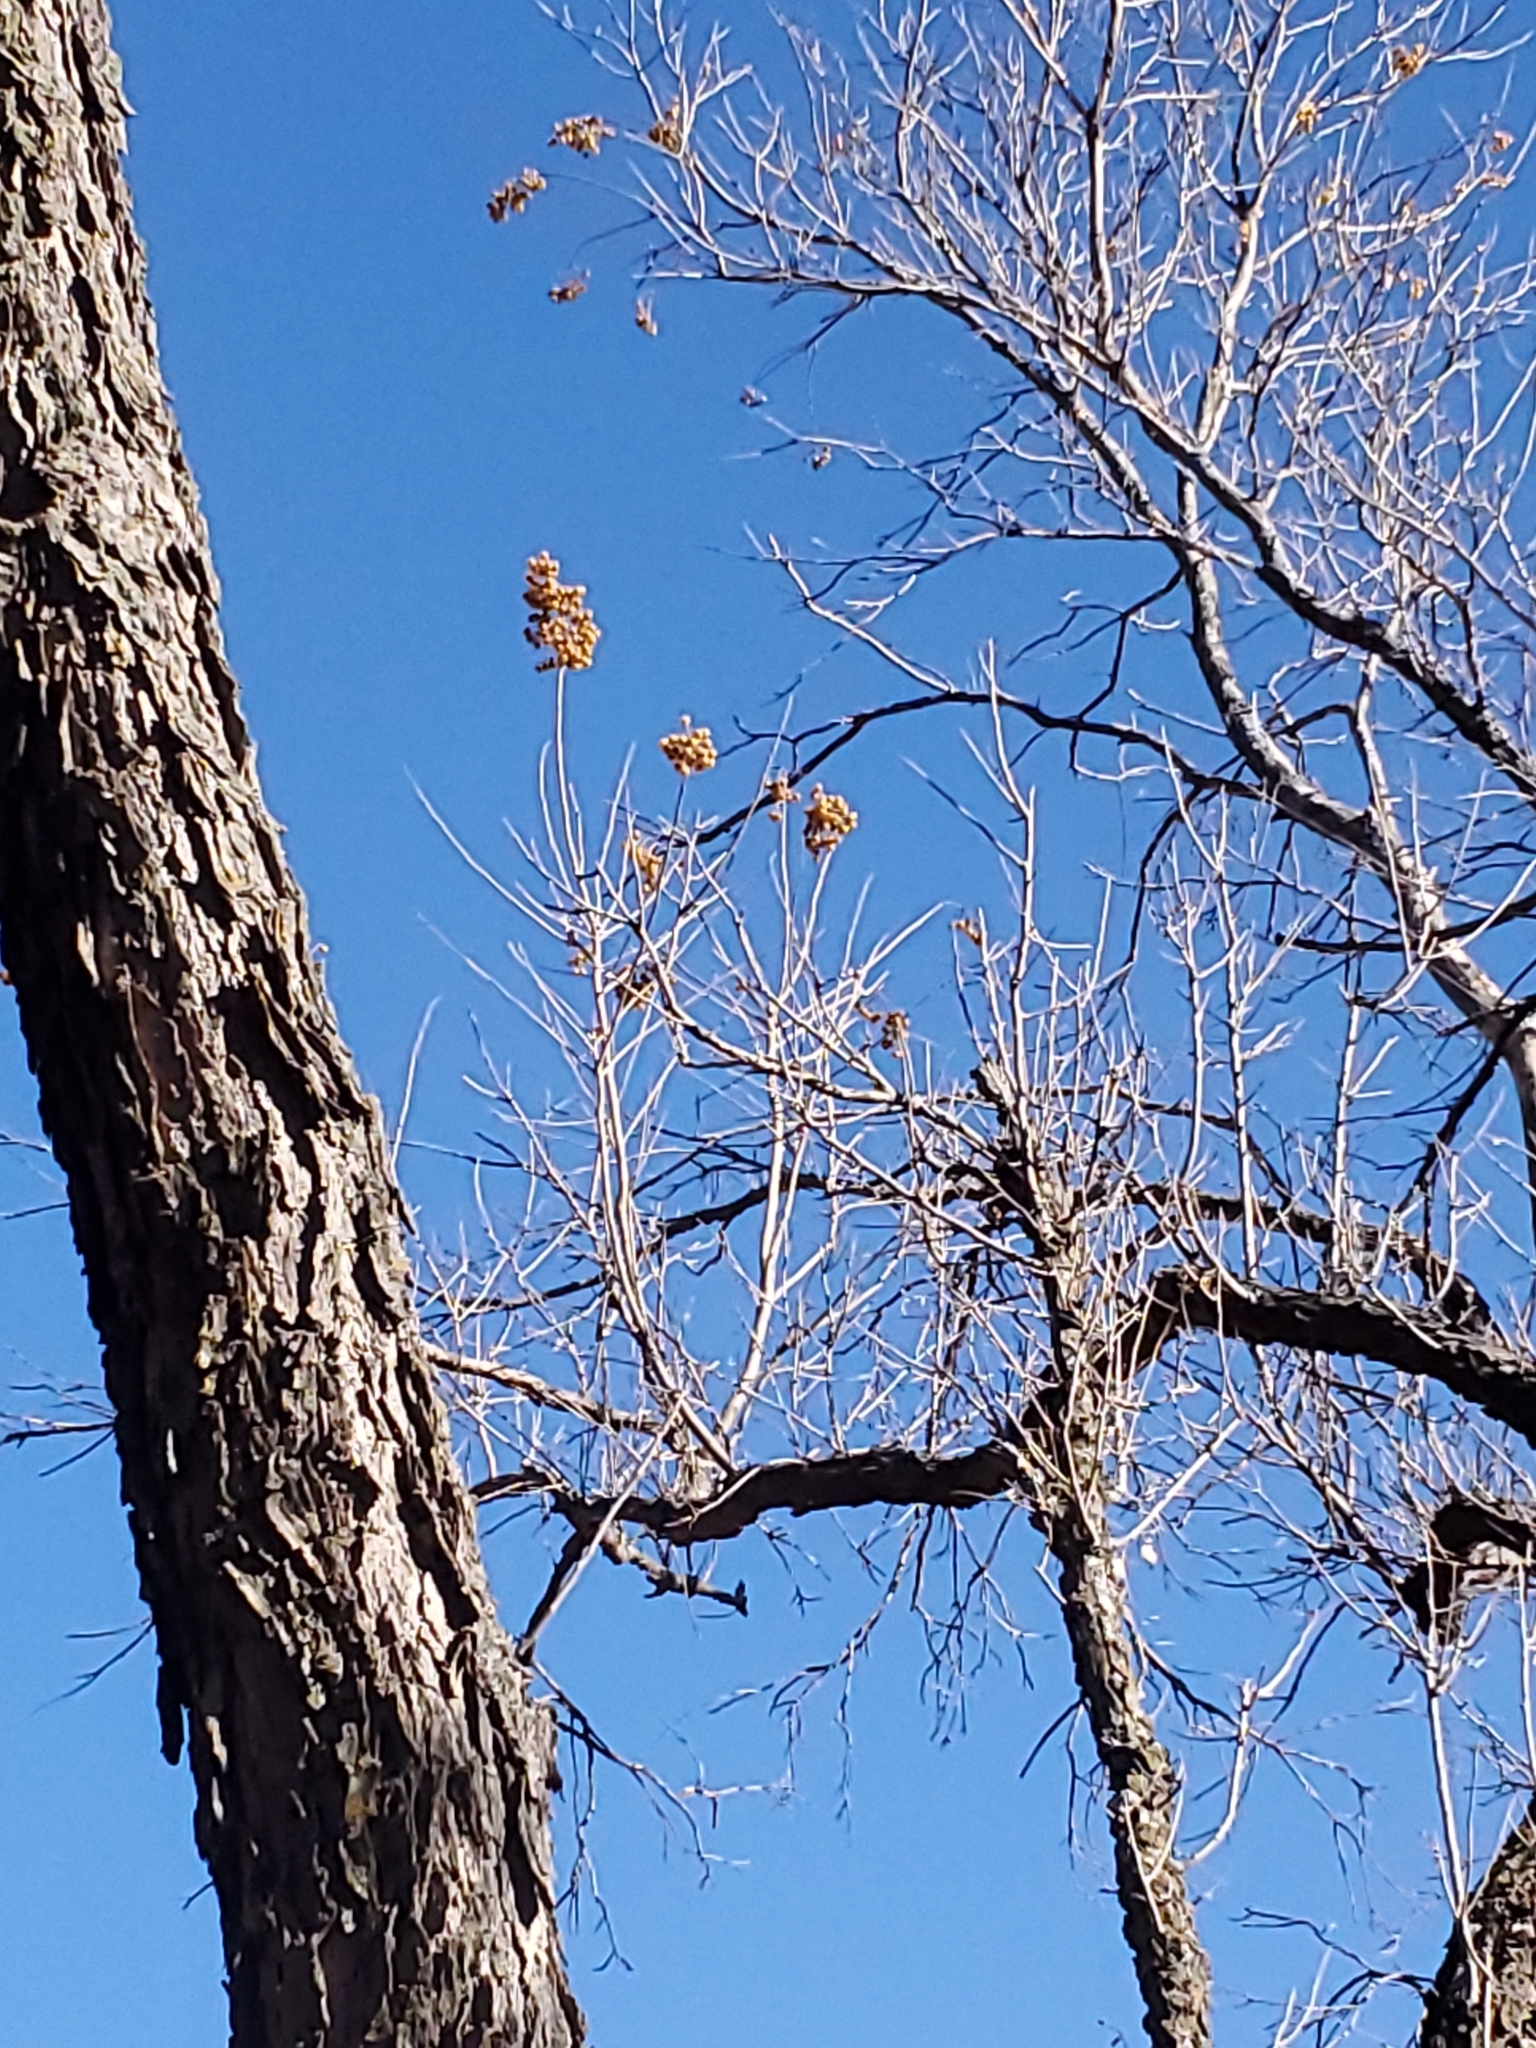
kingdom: Plantae
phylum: Tracheophyta
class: Magnoliopsida
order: Sapindales
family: Sapindaceae
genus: Sapindus
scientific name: Sapindus drummondii
